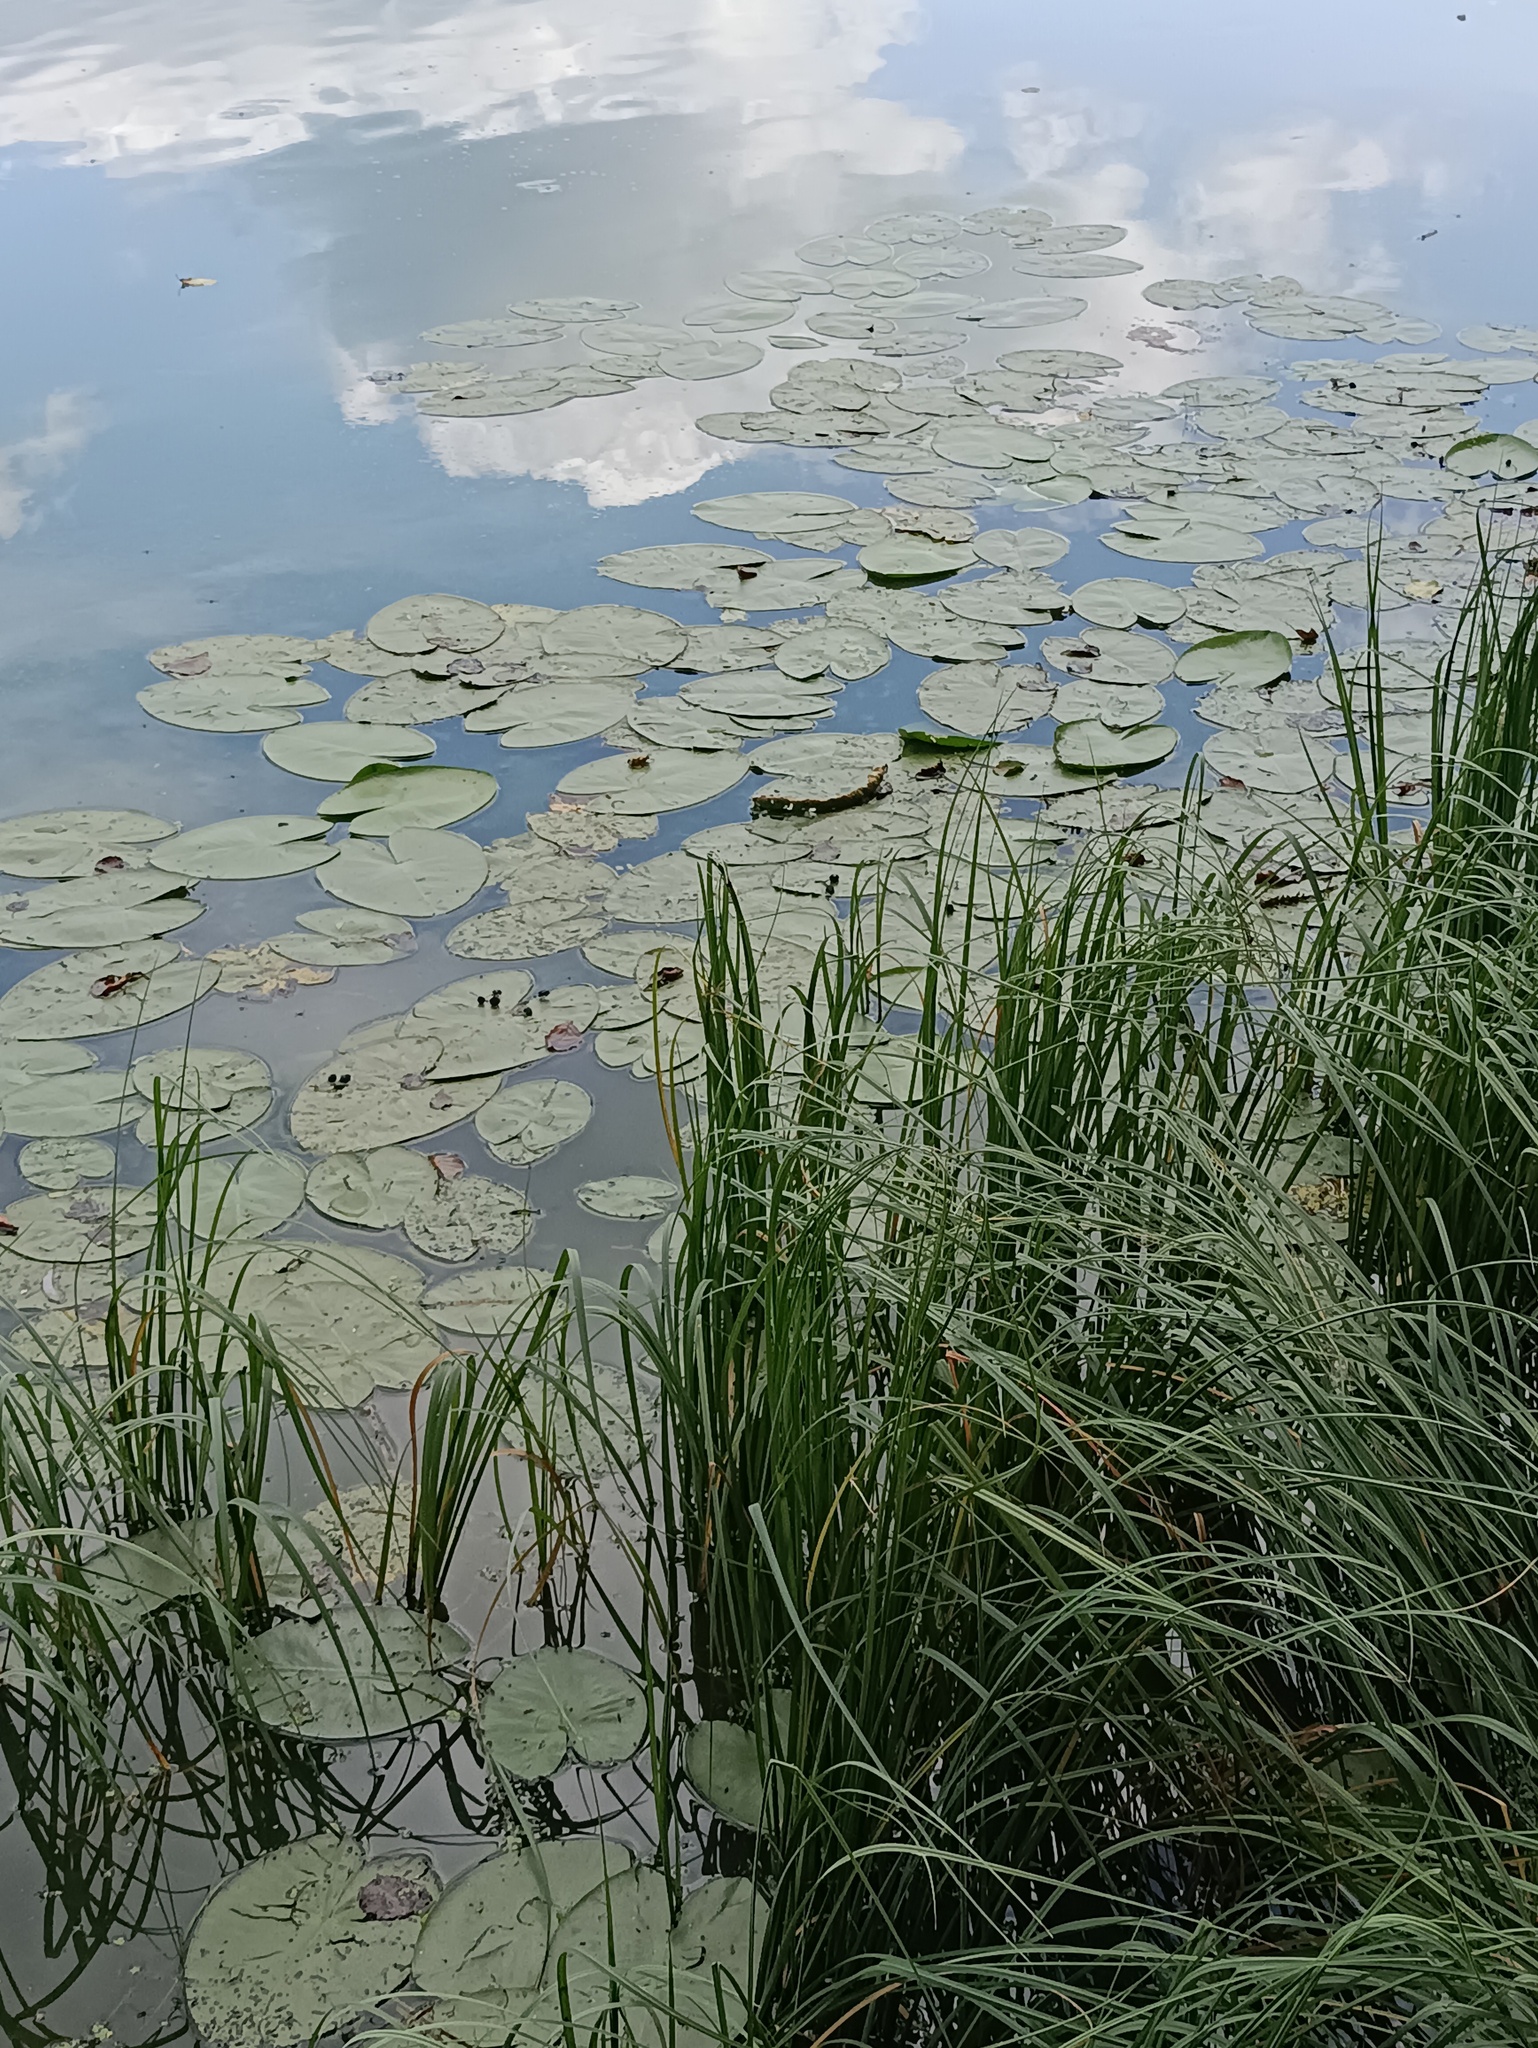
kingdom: Plantae
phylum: Tracheophyta
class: Magnoliopsida
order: Nymphaeales
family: Nymphaeaceae
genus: Nuphar
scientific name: Nuphar lutea
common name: Yellow water-lily
